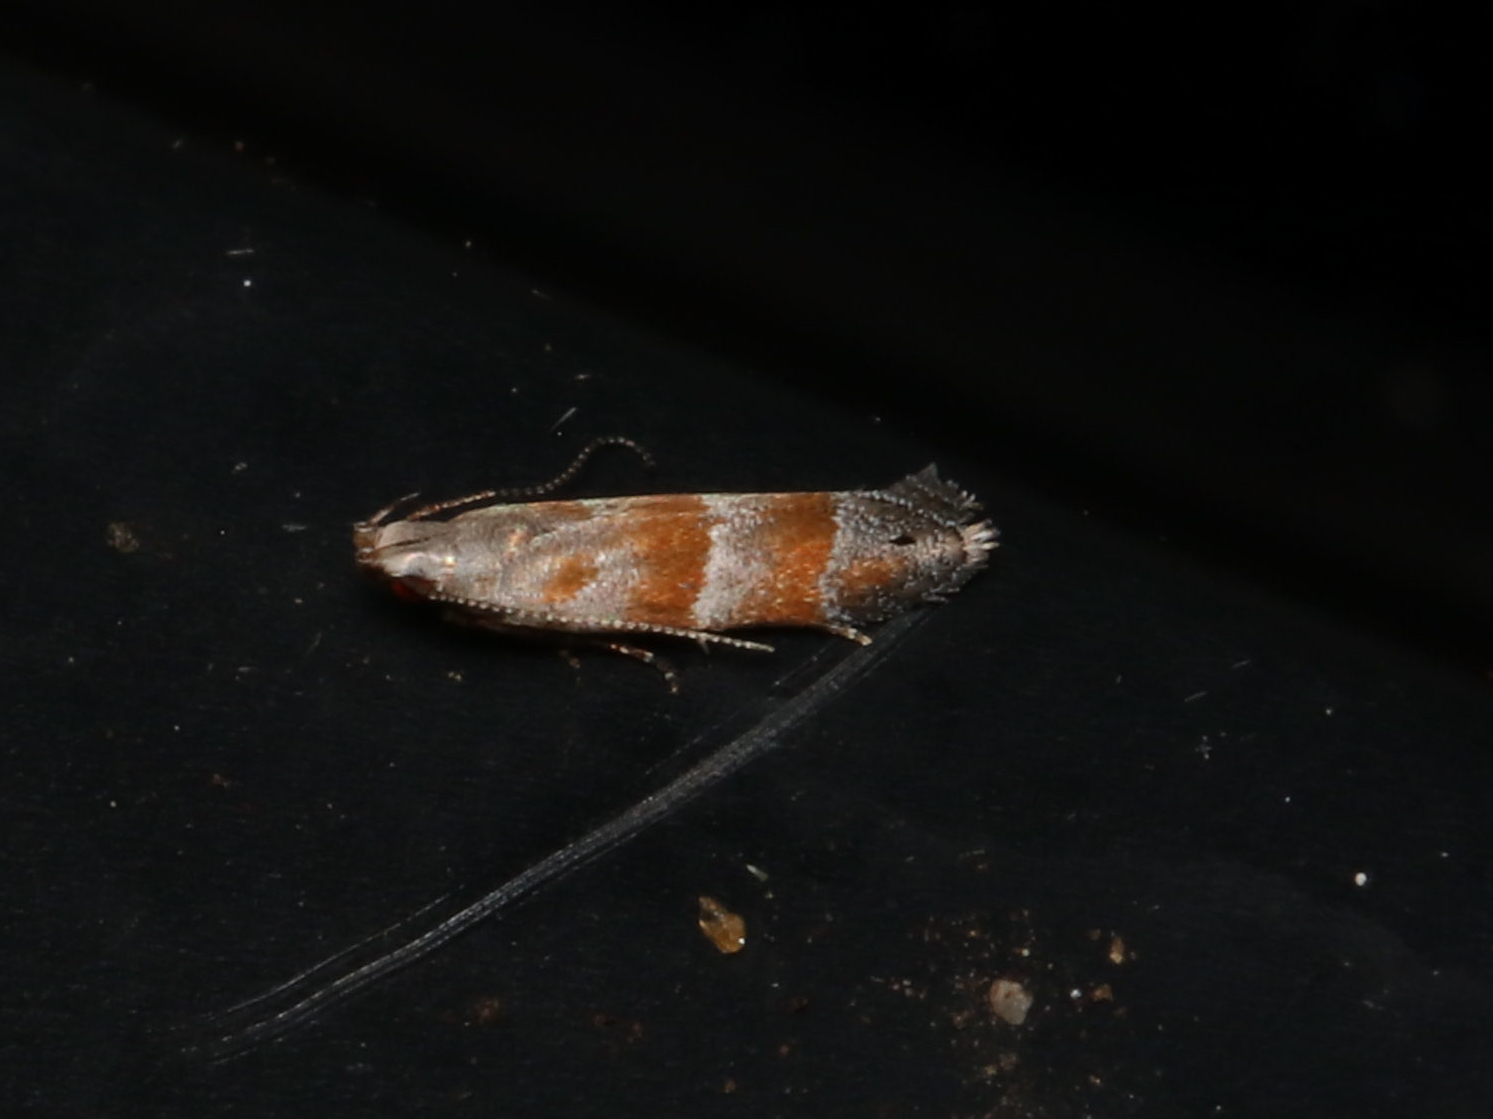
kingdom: Animalia
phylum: Arthropoda
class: Insecta
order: Lepidoptera
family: Gelechiidae
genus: Battaristis
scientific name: Battaristis vittella
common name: Orange stripe-backed moth
